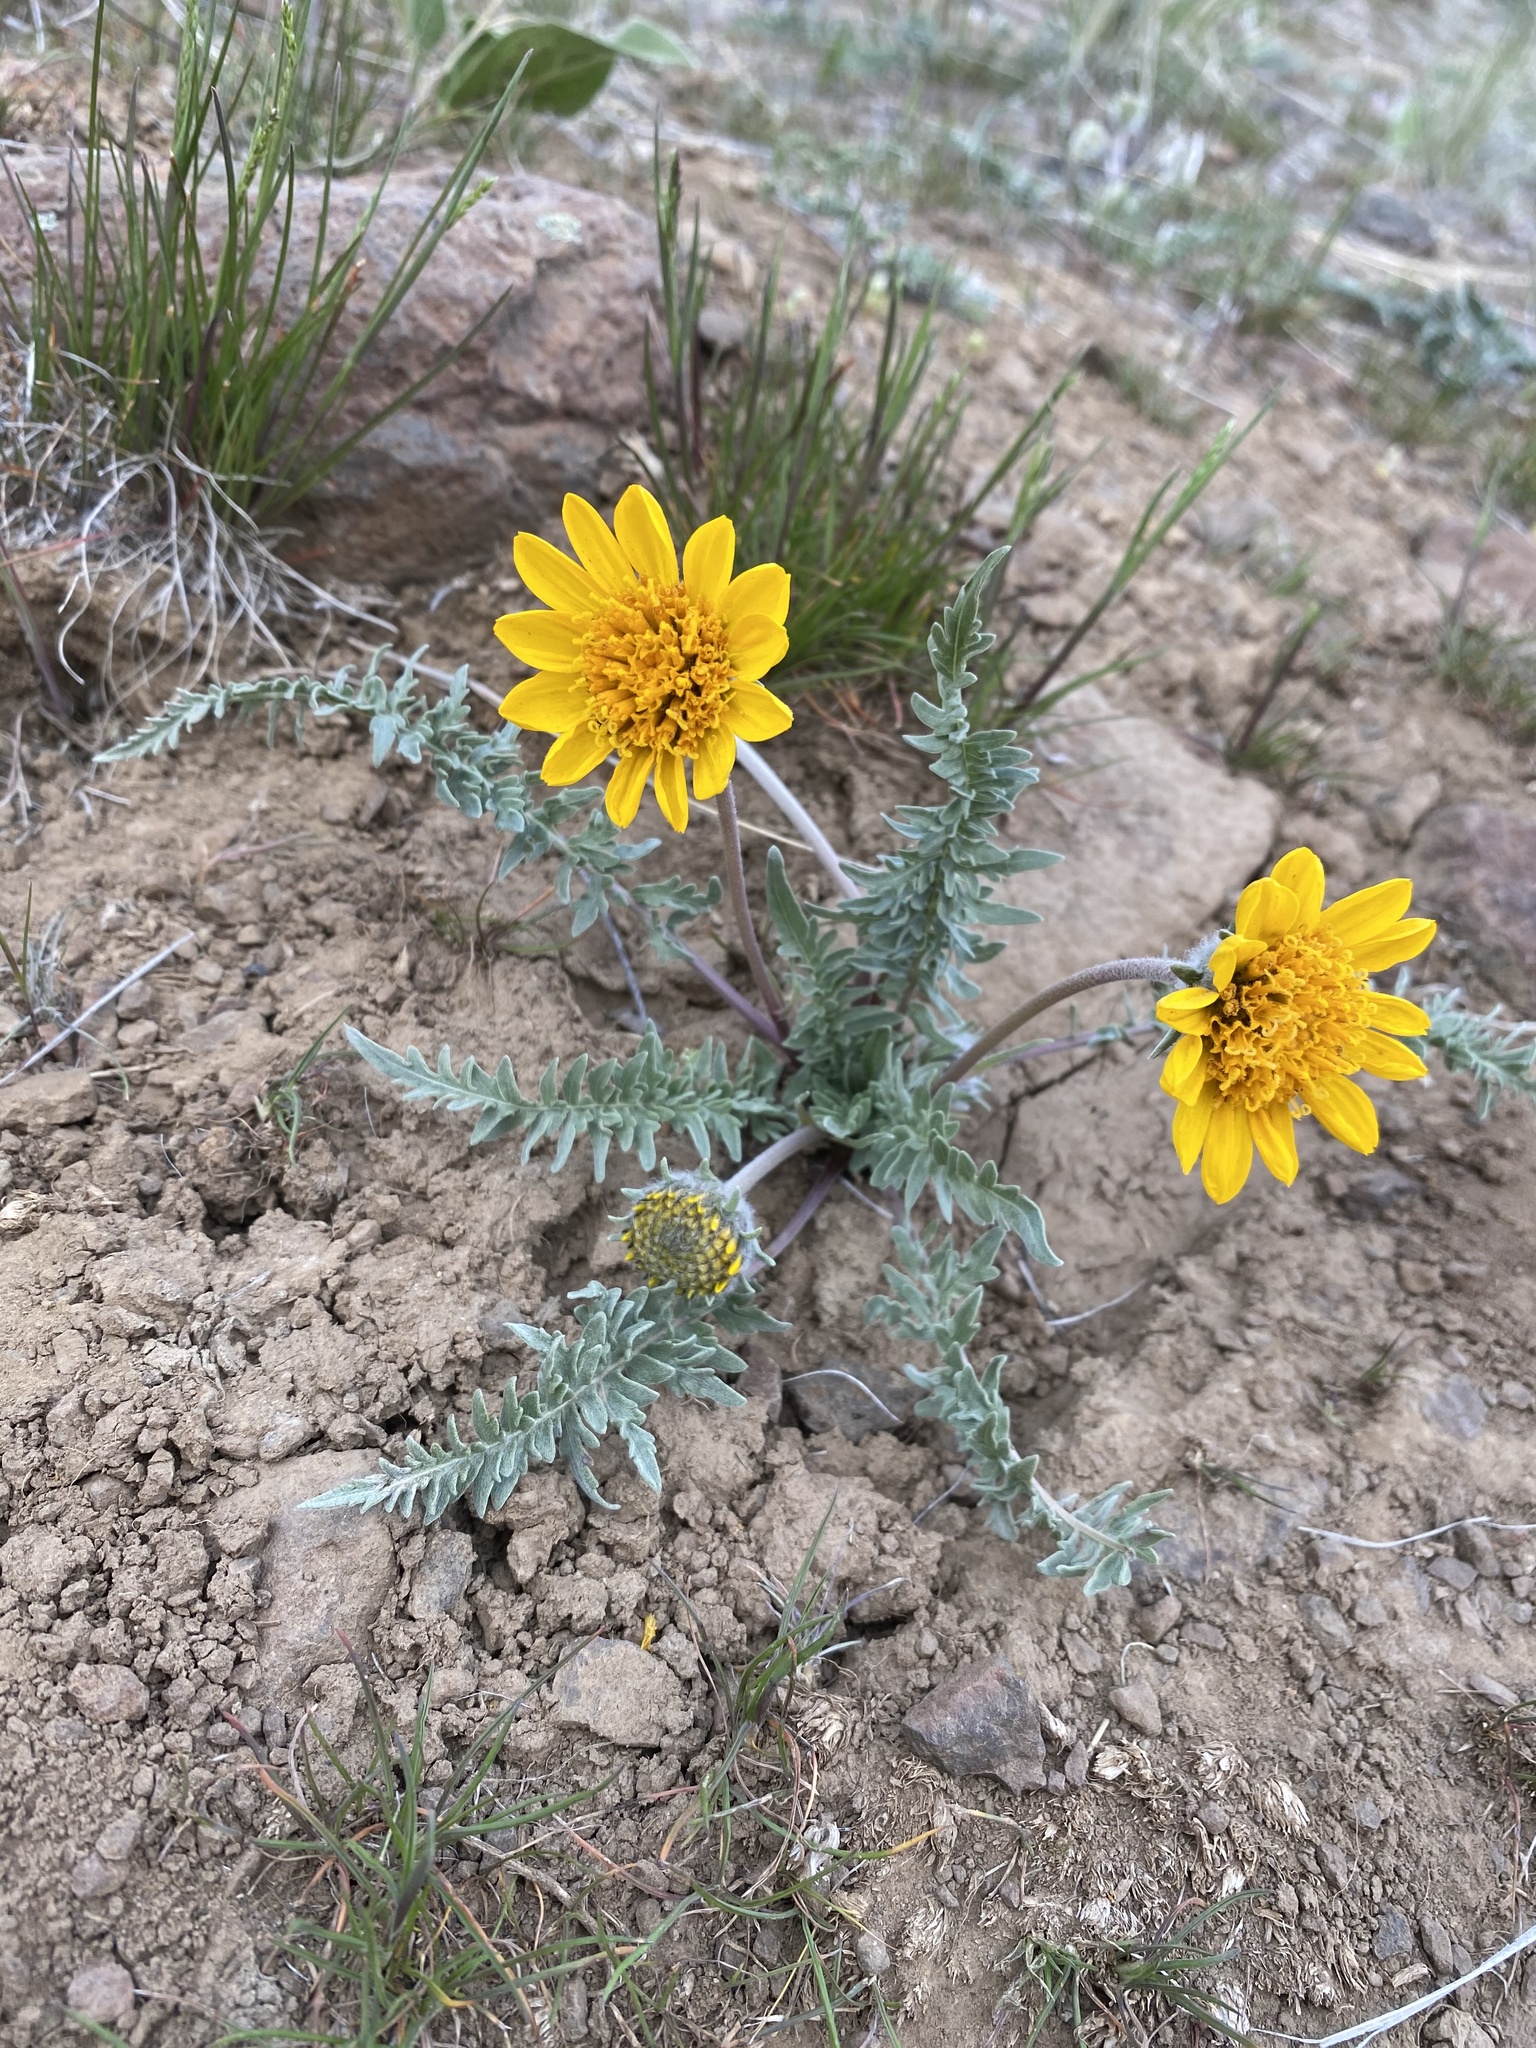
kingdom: Plantae
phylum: Tracheophyta
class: Magnoliopsida
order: Asterales
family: Asteraceae
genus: Balsamorhiza
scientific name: Balsamorhiza hookeri
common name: Hooker's balsamroot
